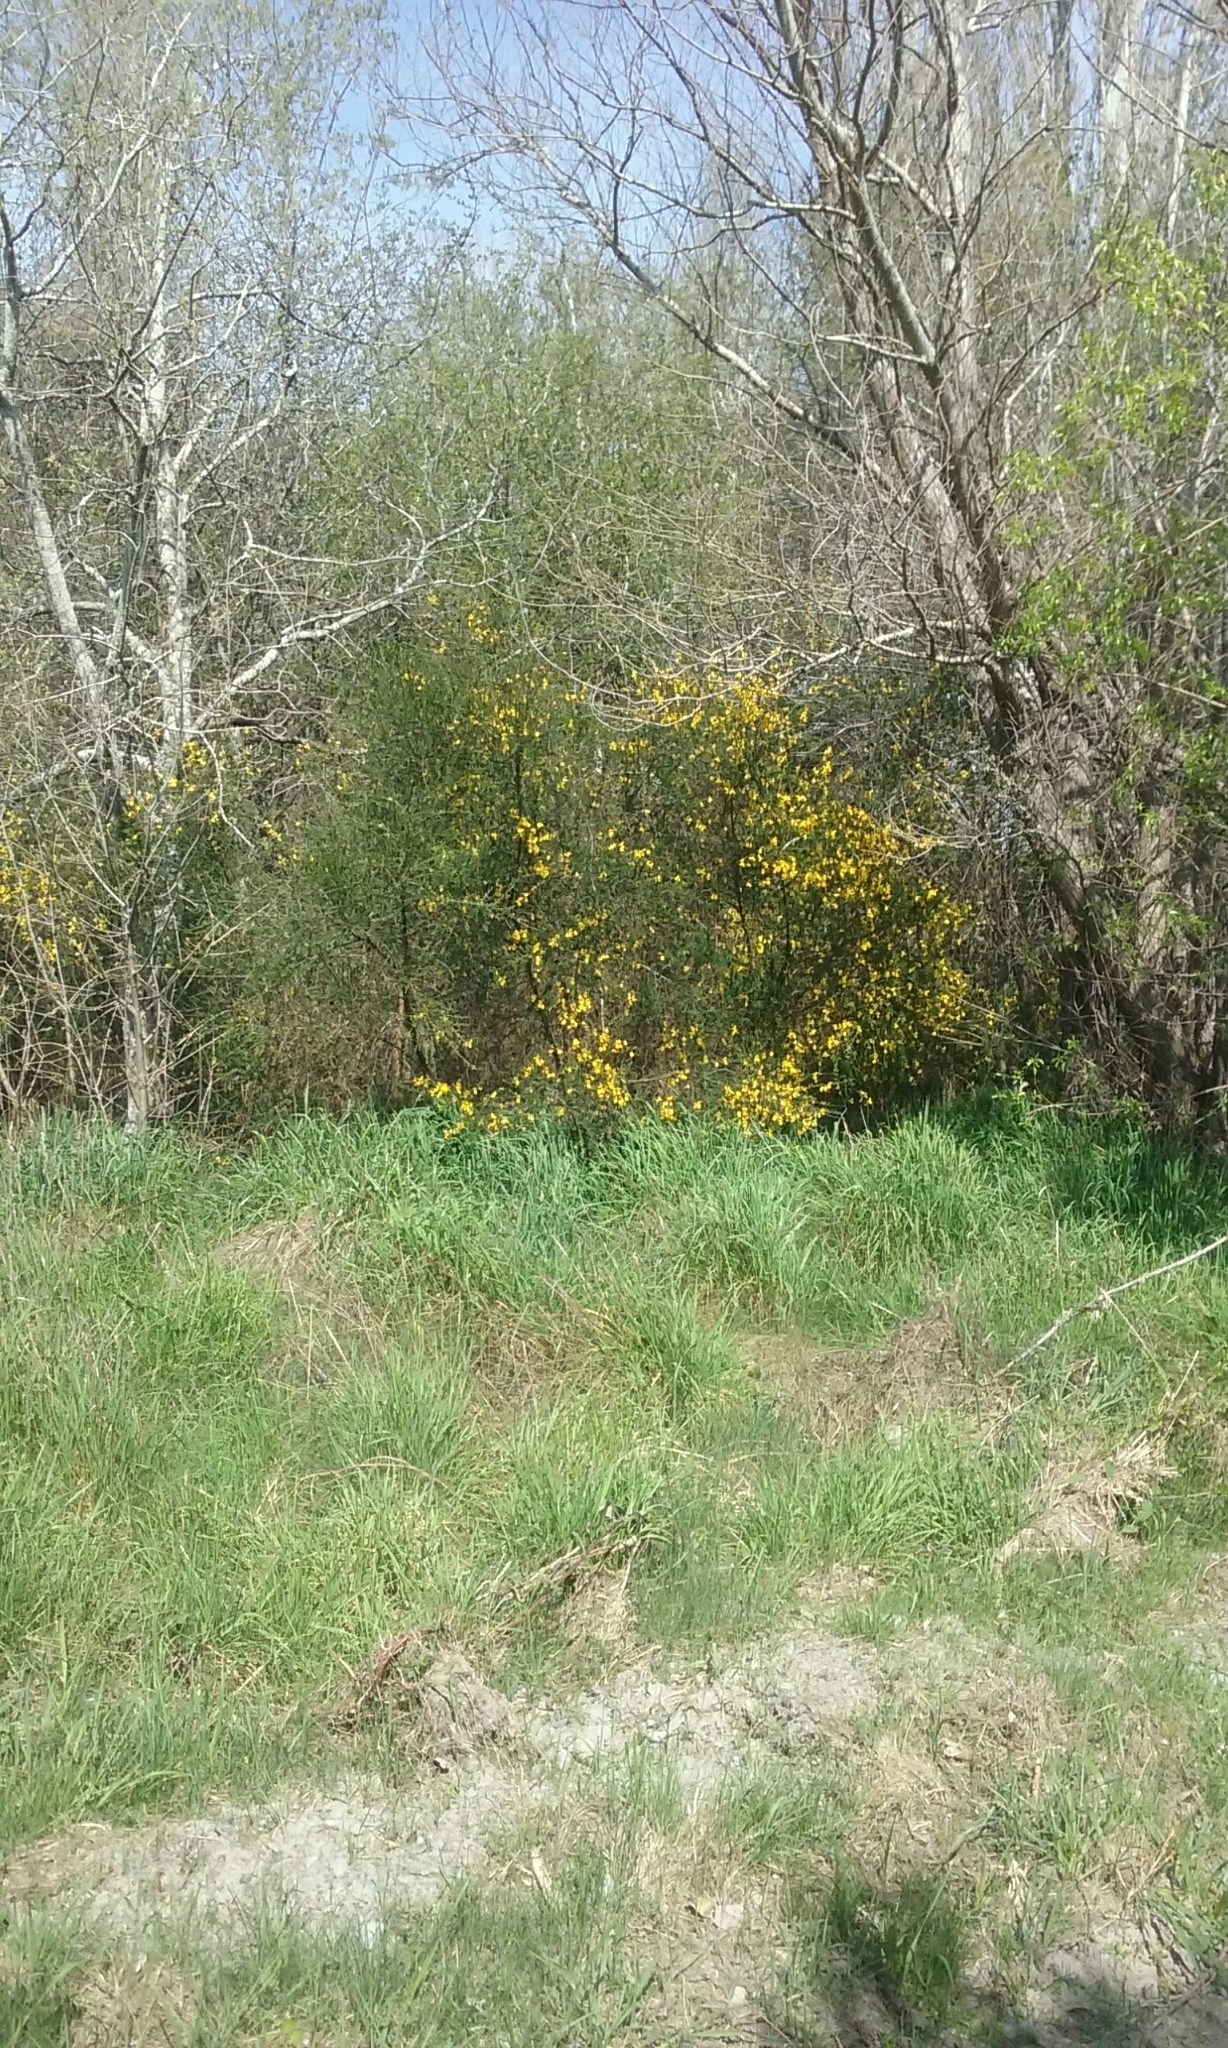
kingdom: Plantae
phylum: Tracheophyta
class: Magnoliopsida
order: Fabales
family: Fabaceae
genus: Cytisus
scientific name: Cytisus scoparius
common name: Scotch broom
